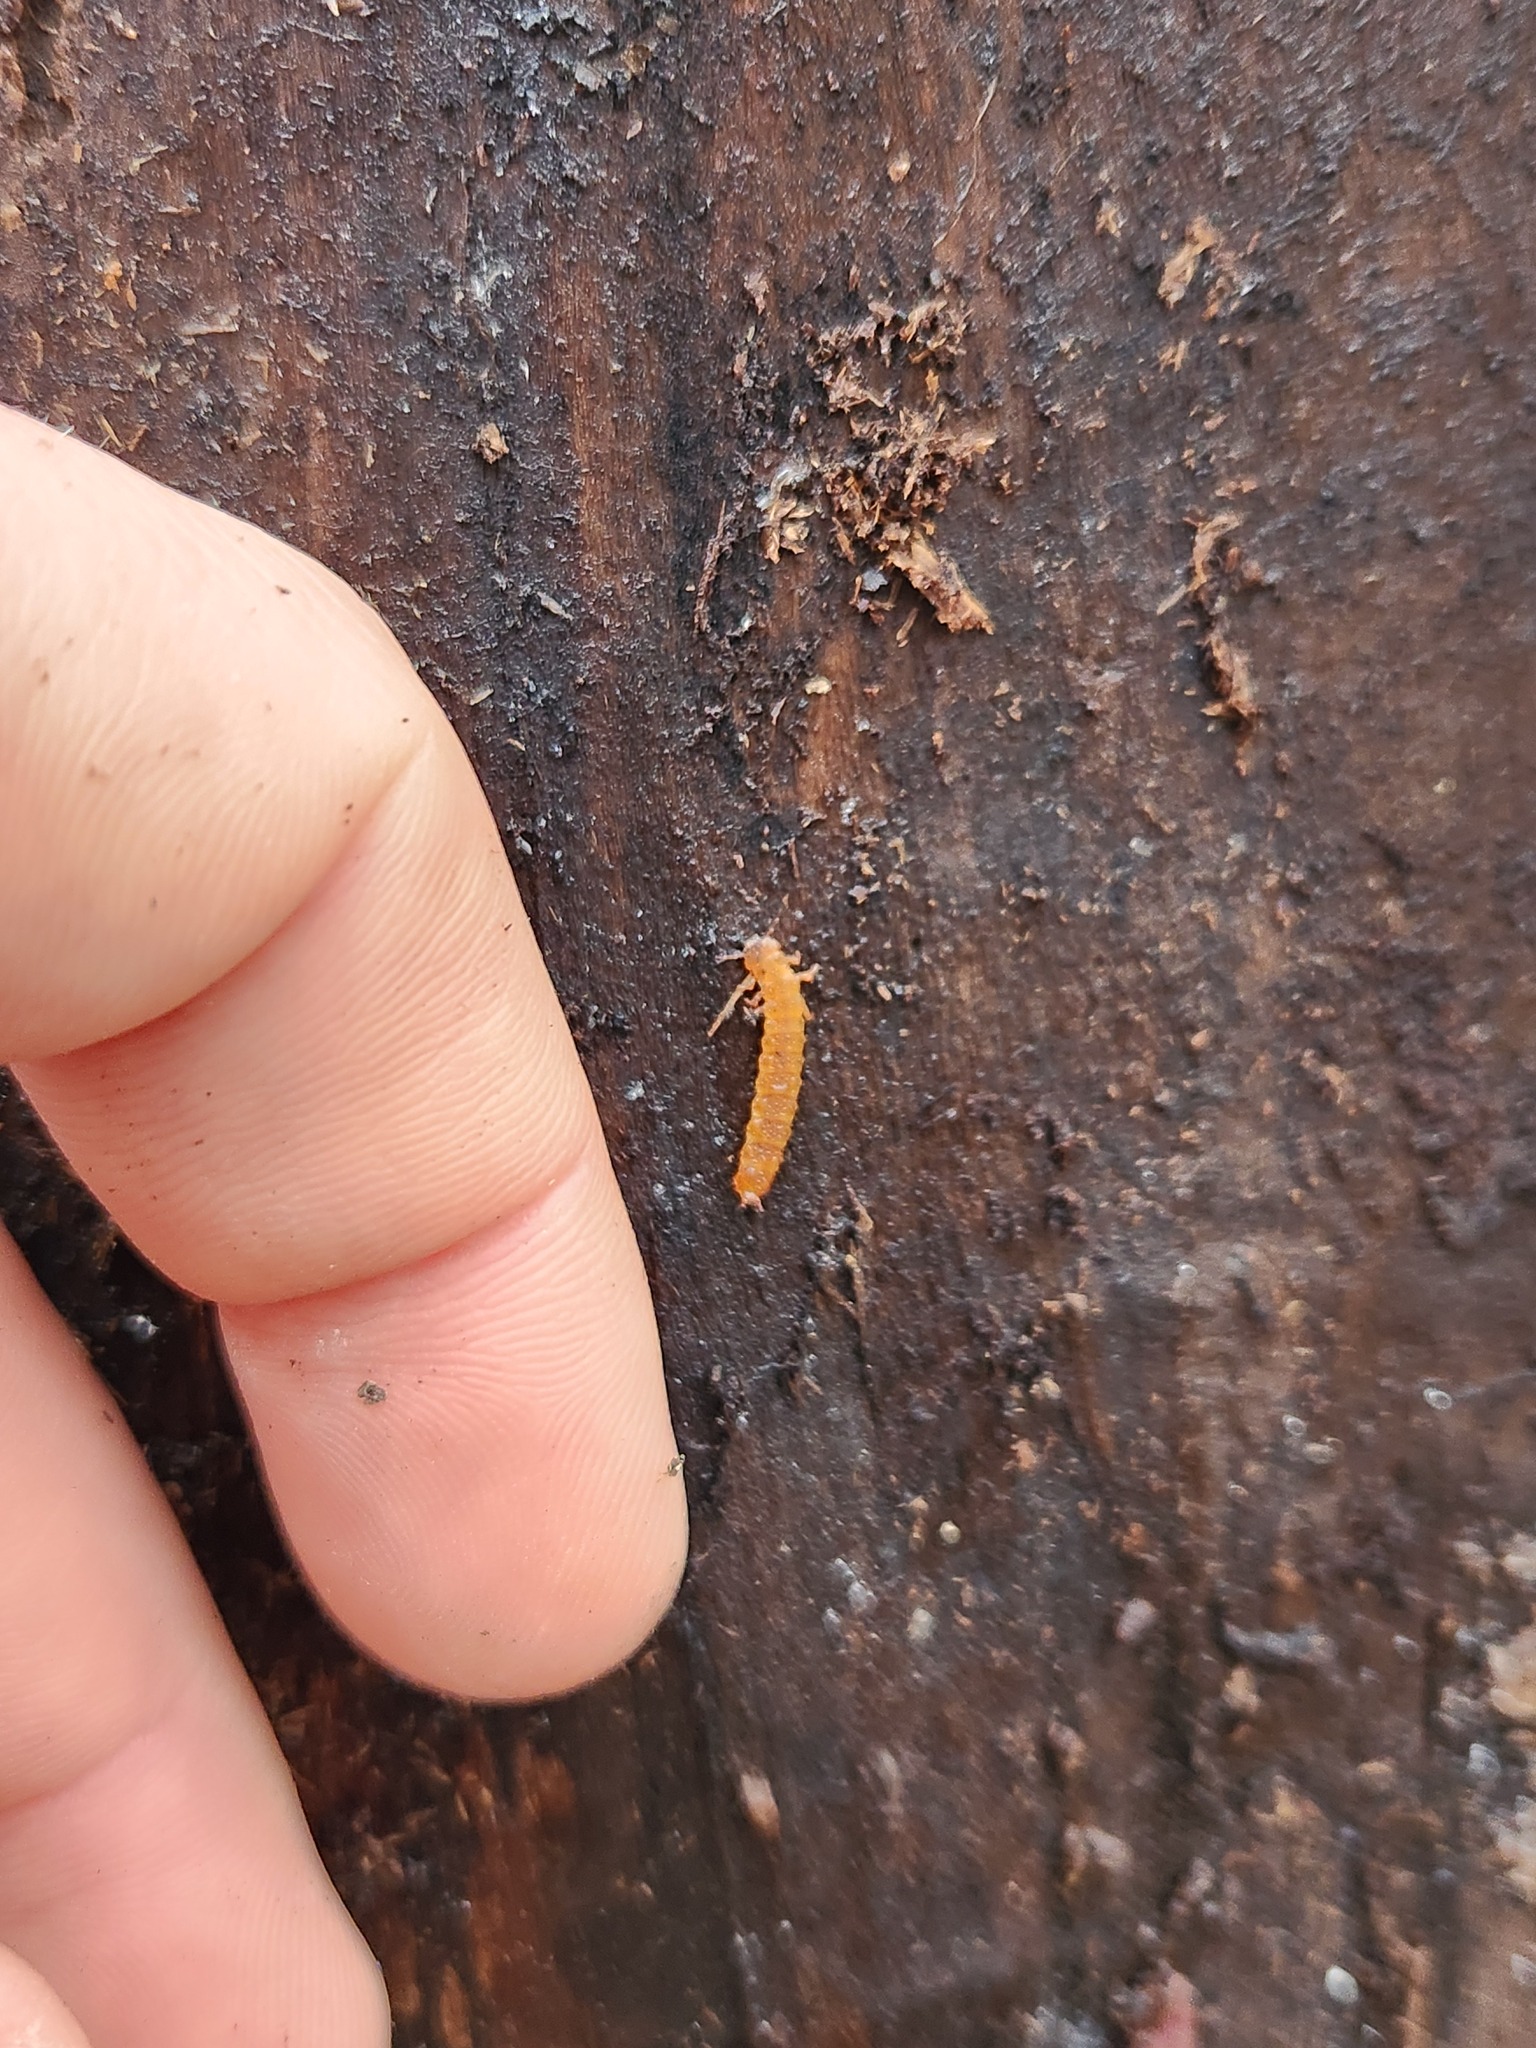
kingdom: Animalia
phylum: Arthropoda
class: Insecta
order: Coleoptera
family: Cucujidae
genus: Cucujus
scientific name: Cucujus clavipes
